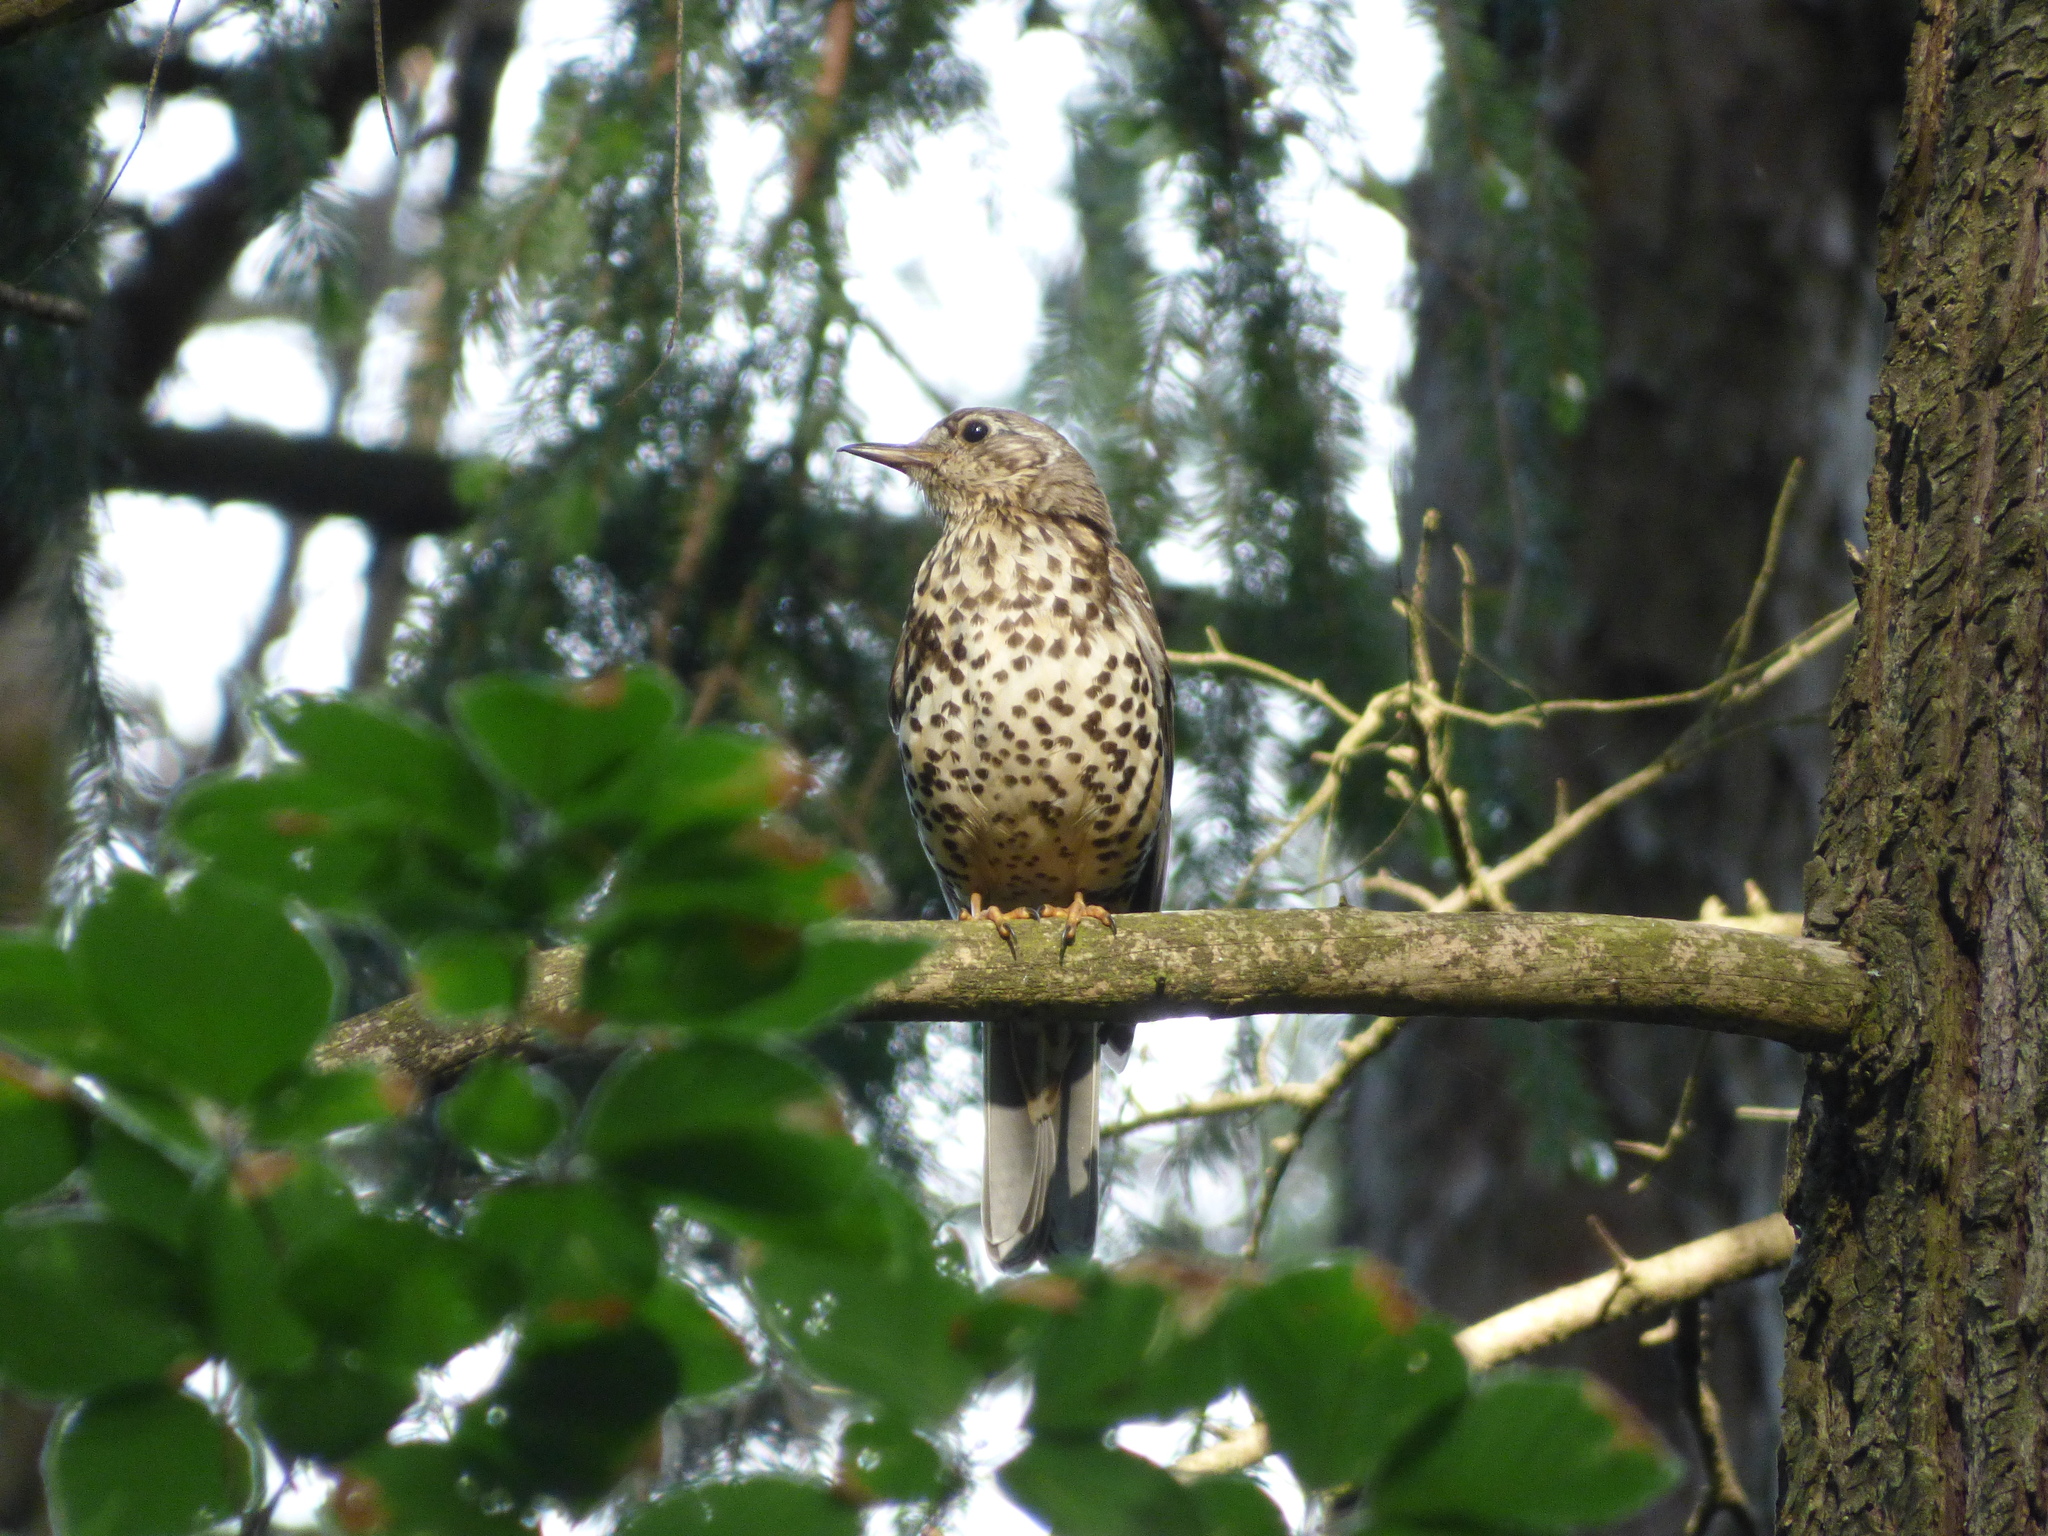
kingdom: Animalia
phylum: Chordata
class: Aves
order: Passeriformes
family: Turdidae
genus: Turdus
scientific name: Turdus viscivorus
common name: Mistle thrush
